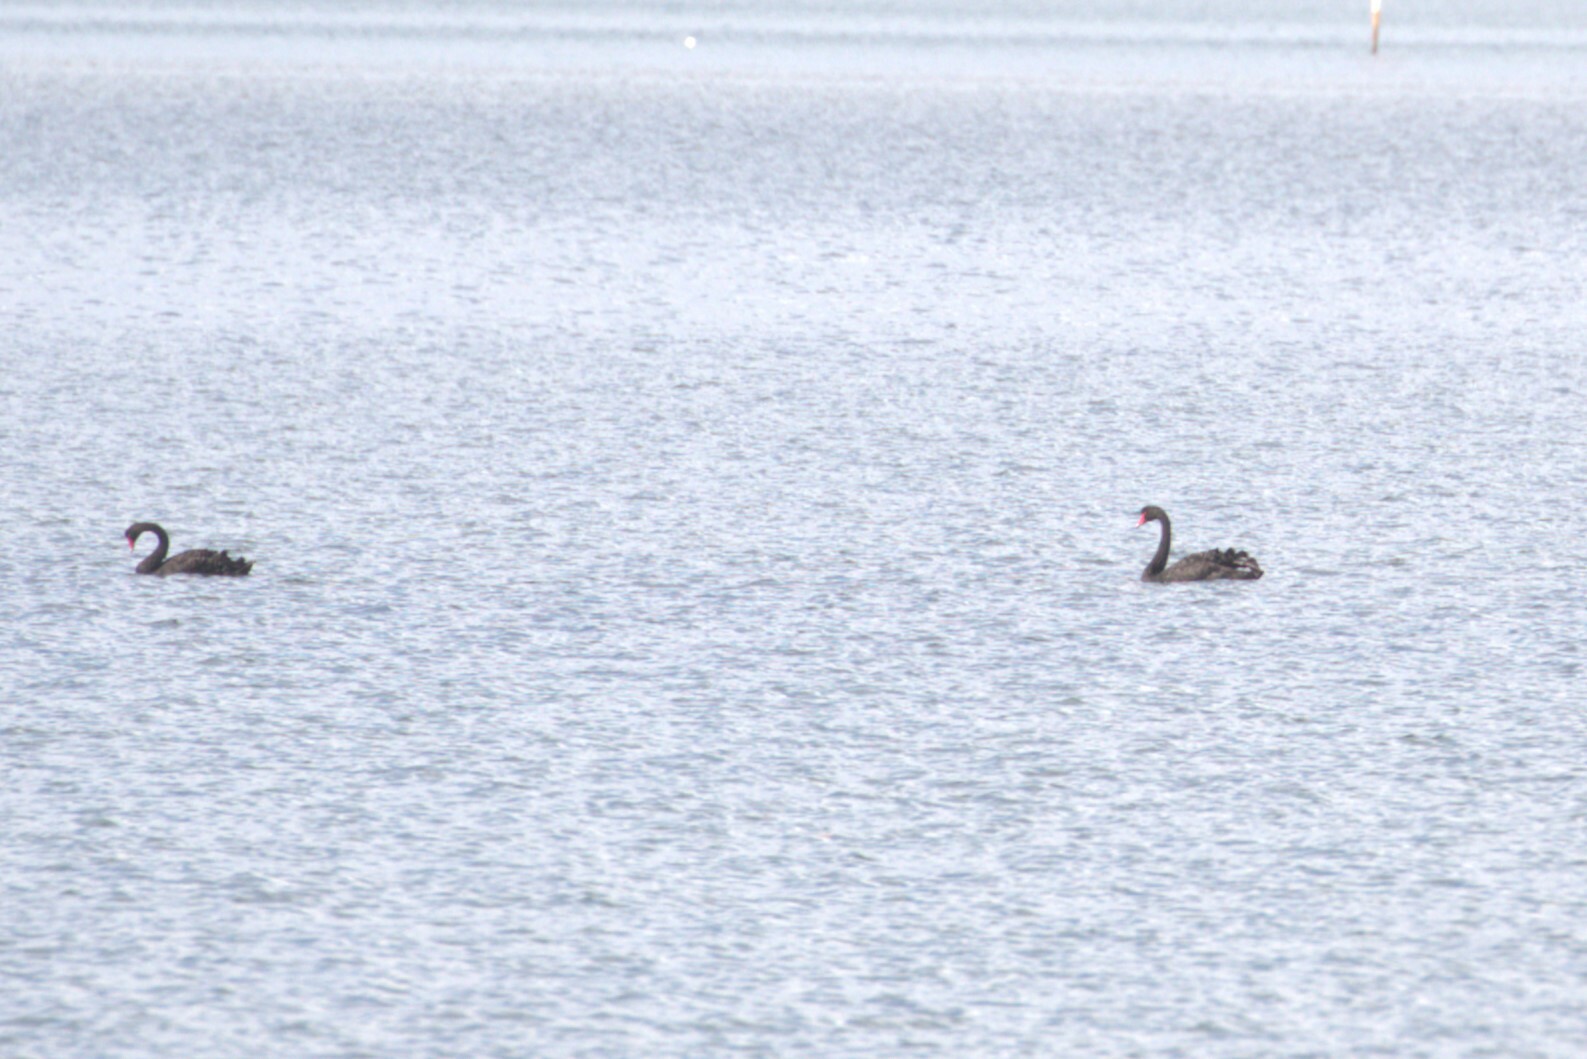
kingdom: Animalia
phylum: Chordata
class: Aves
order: Anseriformes
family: Anatidae
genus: Cygnus
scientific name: Cygnus atratus
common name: Black swan
